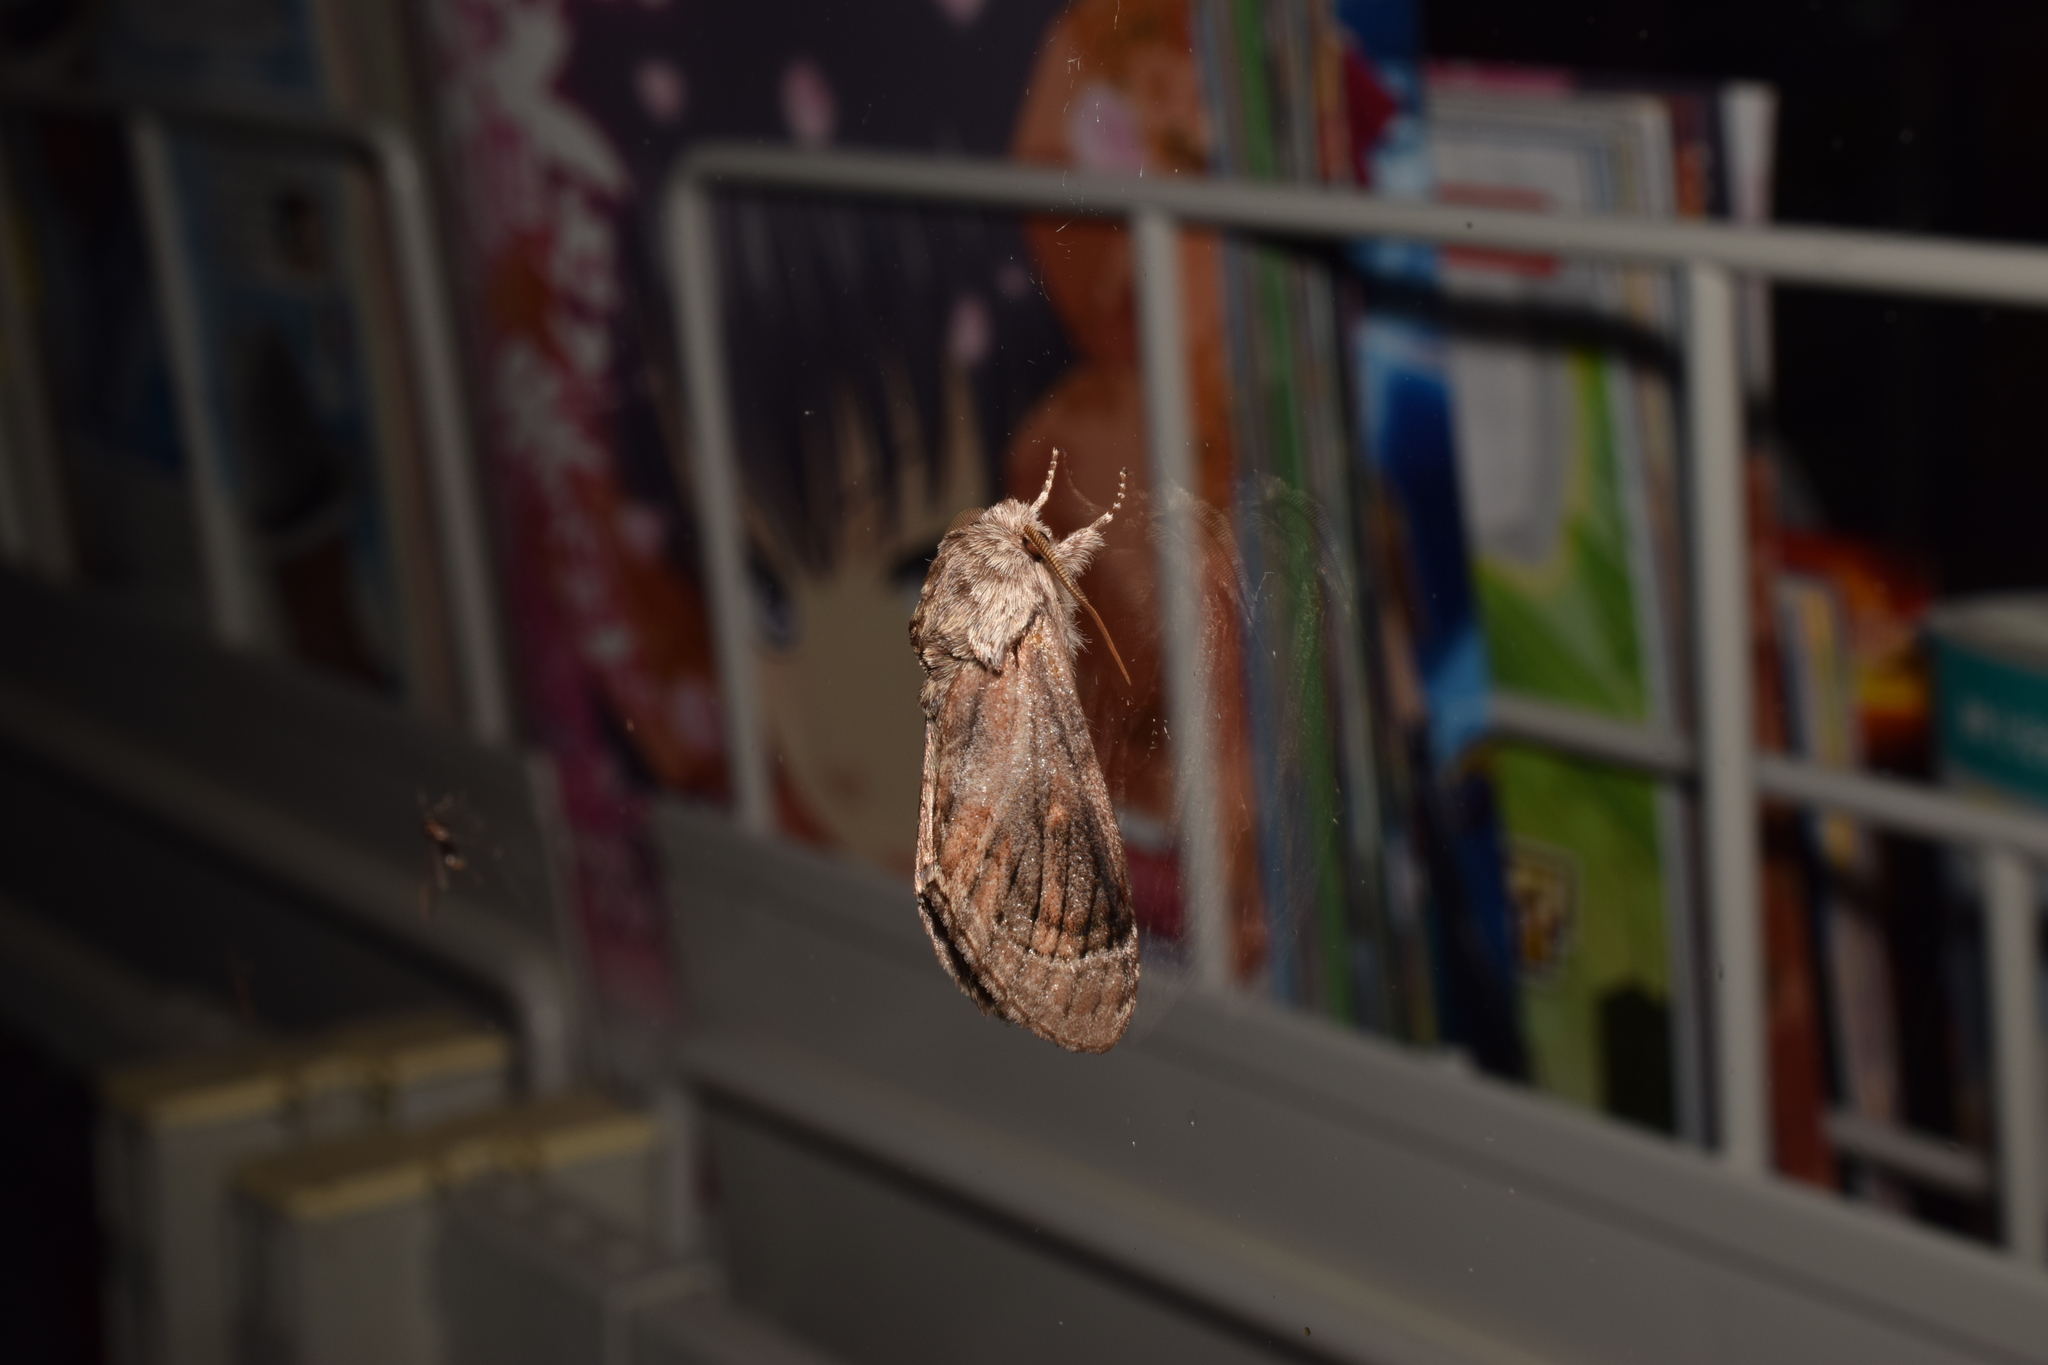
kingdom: Animalia
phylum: Arthropoda
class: Insecta
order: Lepidoptera
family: Notodontidae
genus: Fentonia
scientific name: Fentonia ocypete
